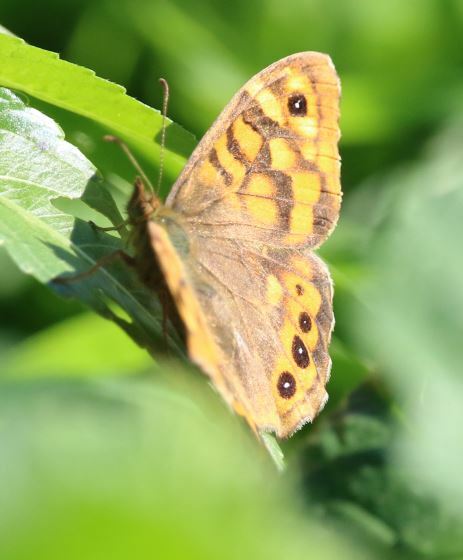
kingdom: Animalia
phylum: Arthropoda
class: Insecta
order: Lepidoptera
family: Nymphalidae
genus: Pararge
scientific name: Pararge aegeria
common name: Speckled wood
